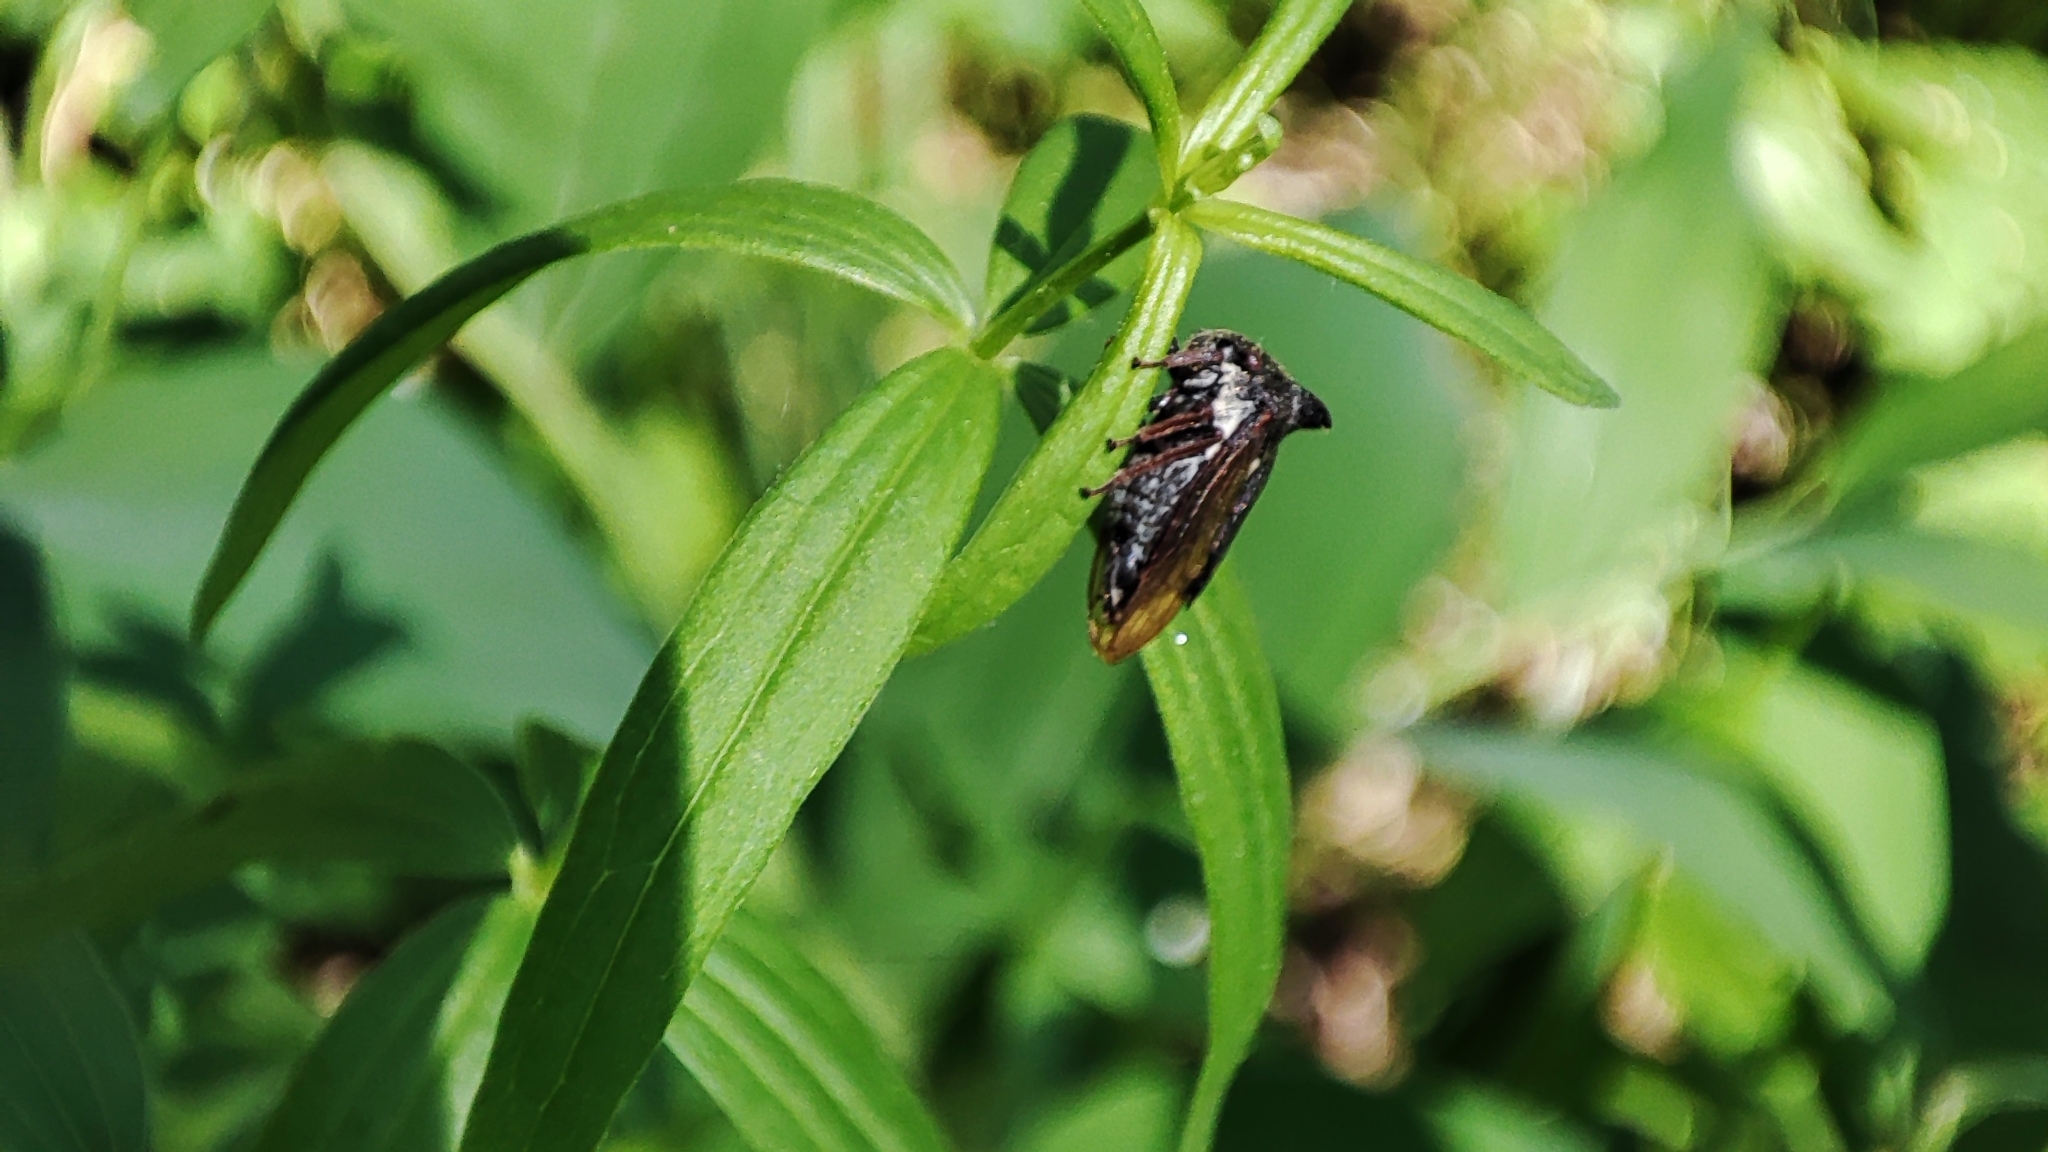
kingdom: Animalia
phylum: Arthropoda
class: Insecta
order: Hemiptera
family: Membracidae
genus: Centrotus
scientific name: Centrotus cornuta
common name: Treehopper
